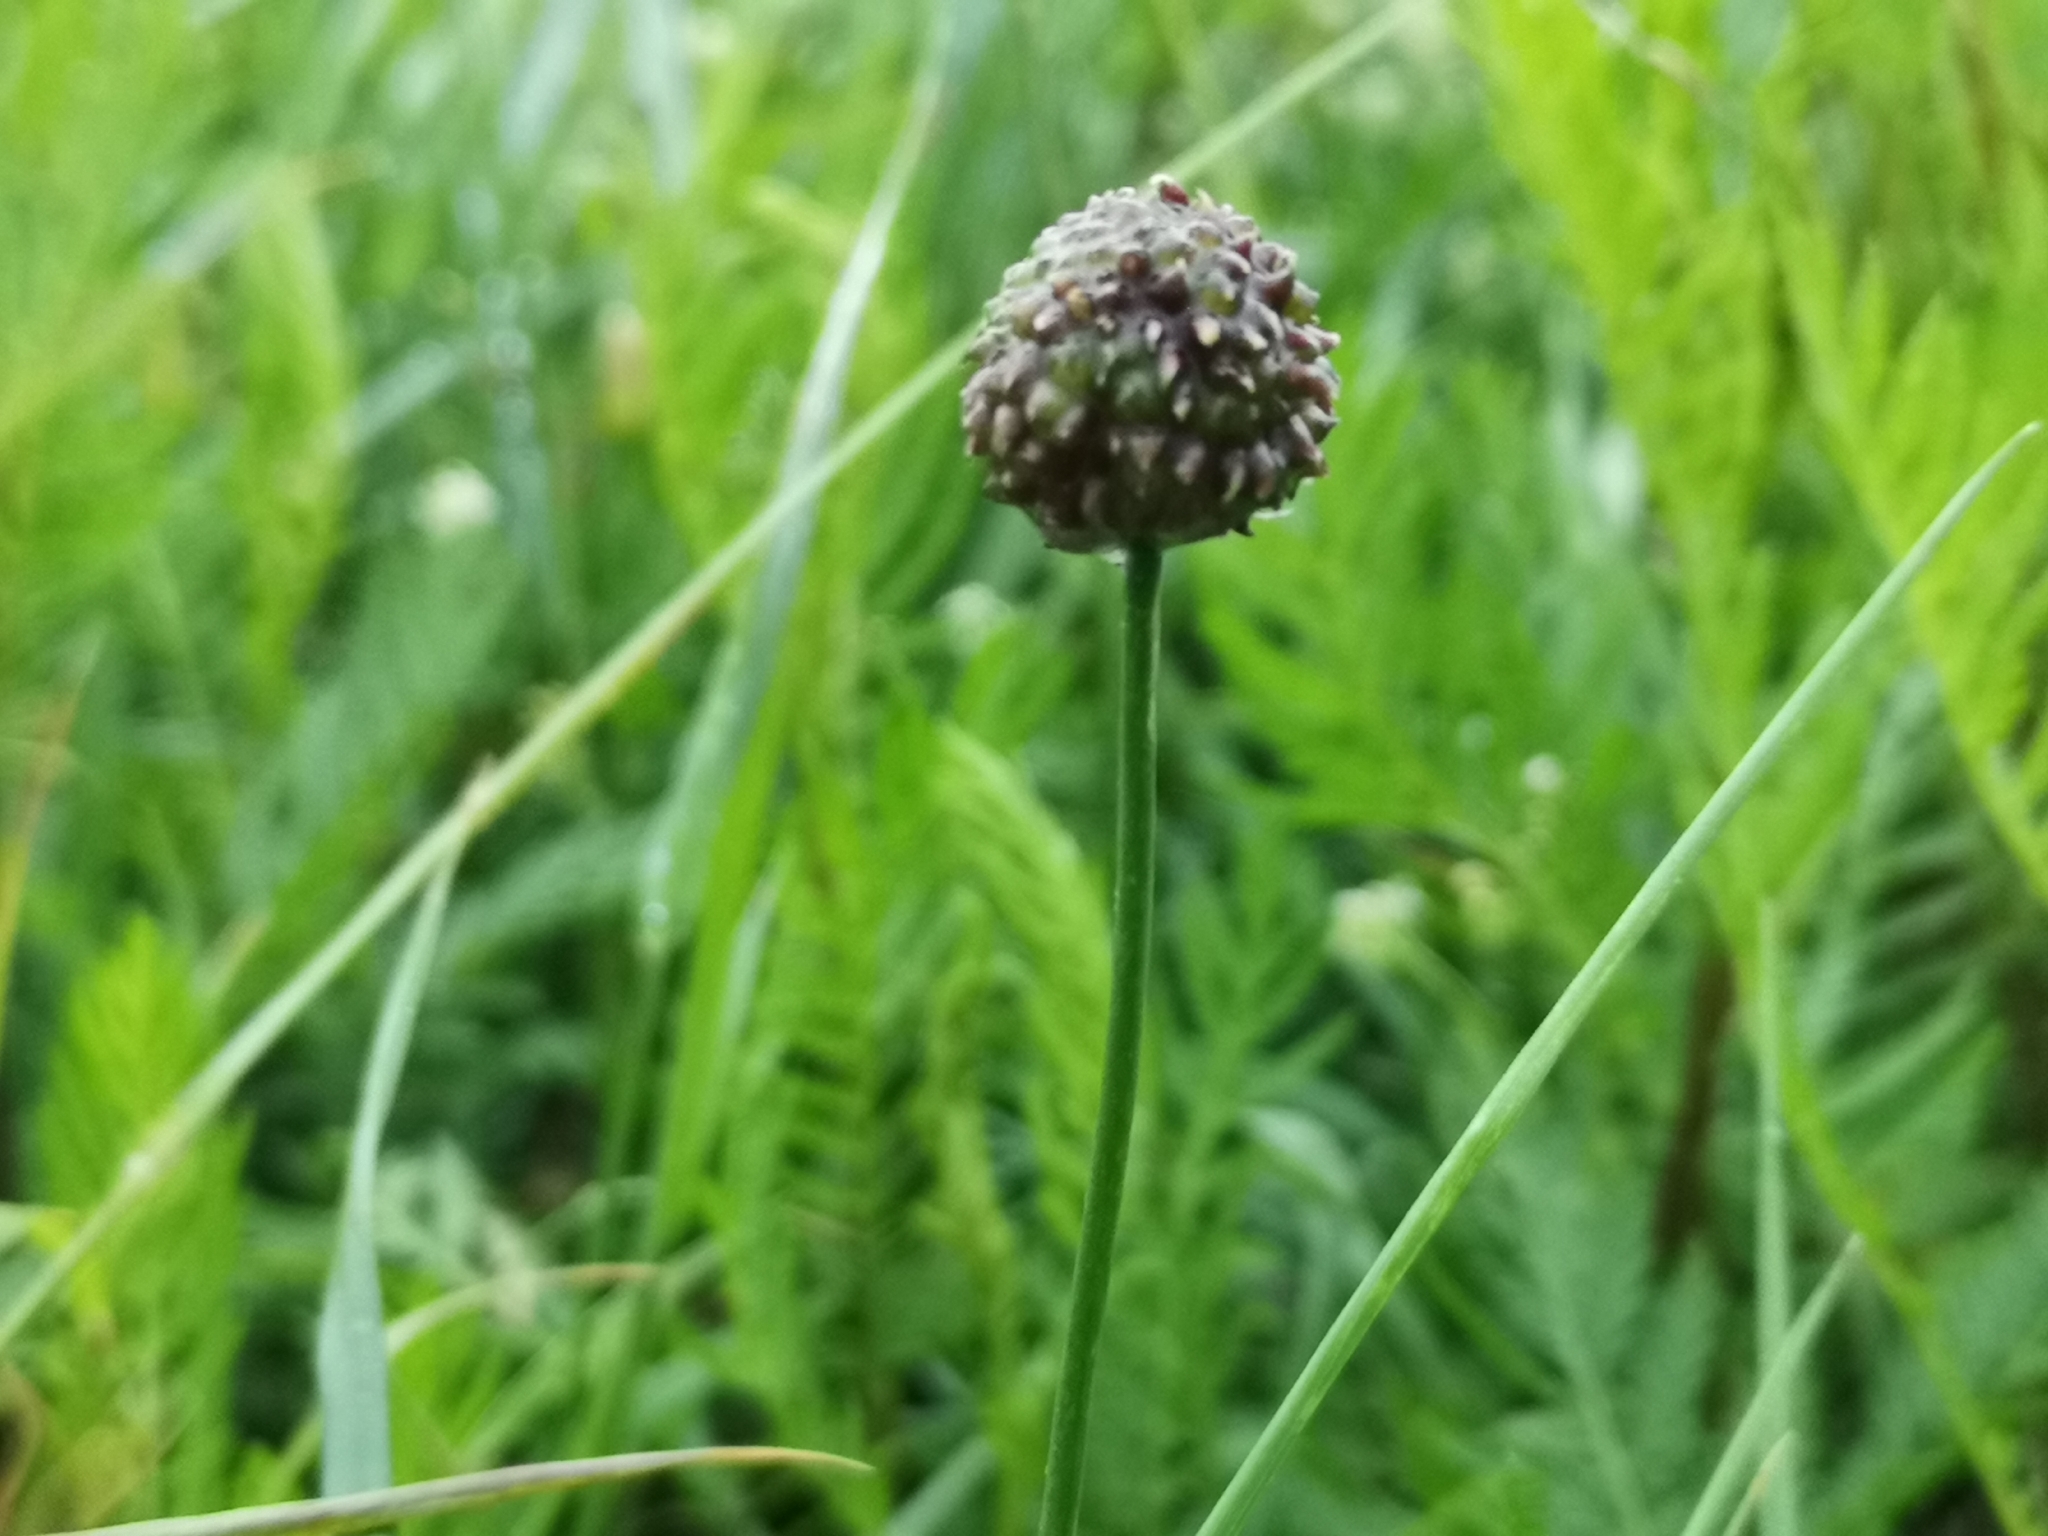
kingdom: Plantae
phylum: Tracheophyta
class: Liliopsida
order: Asparagales
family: Amaryllidaceae
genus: Allium
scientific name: Allium vineale
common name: Crow garlic
